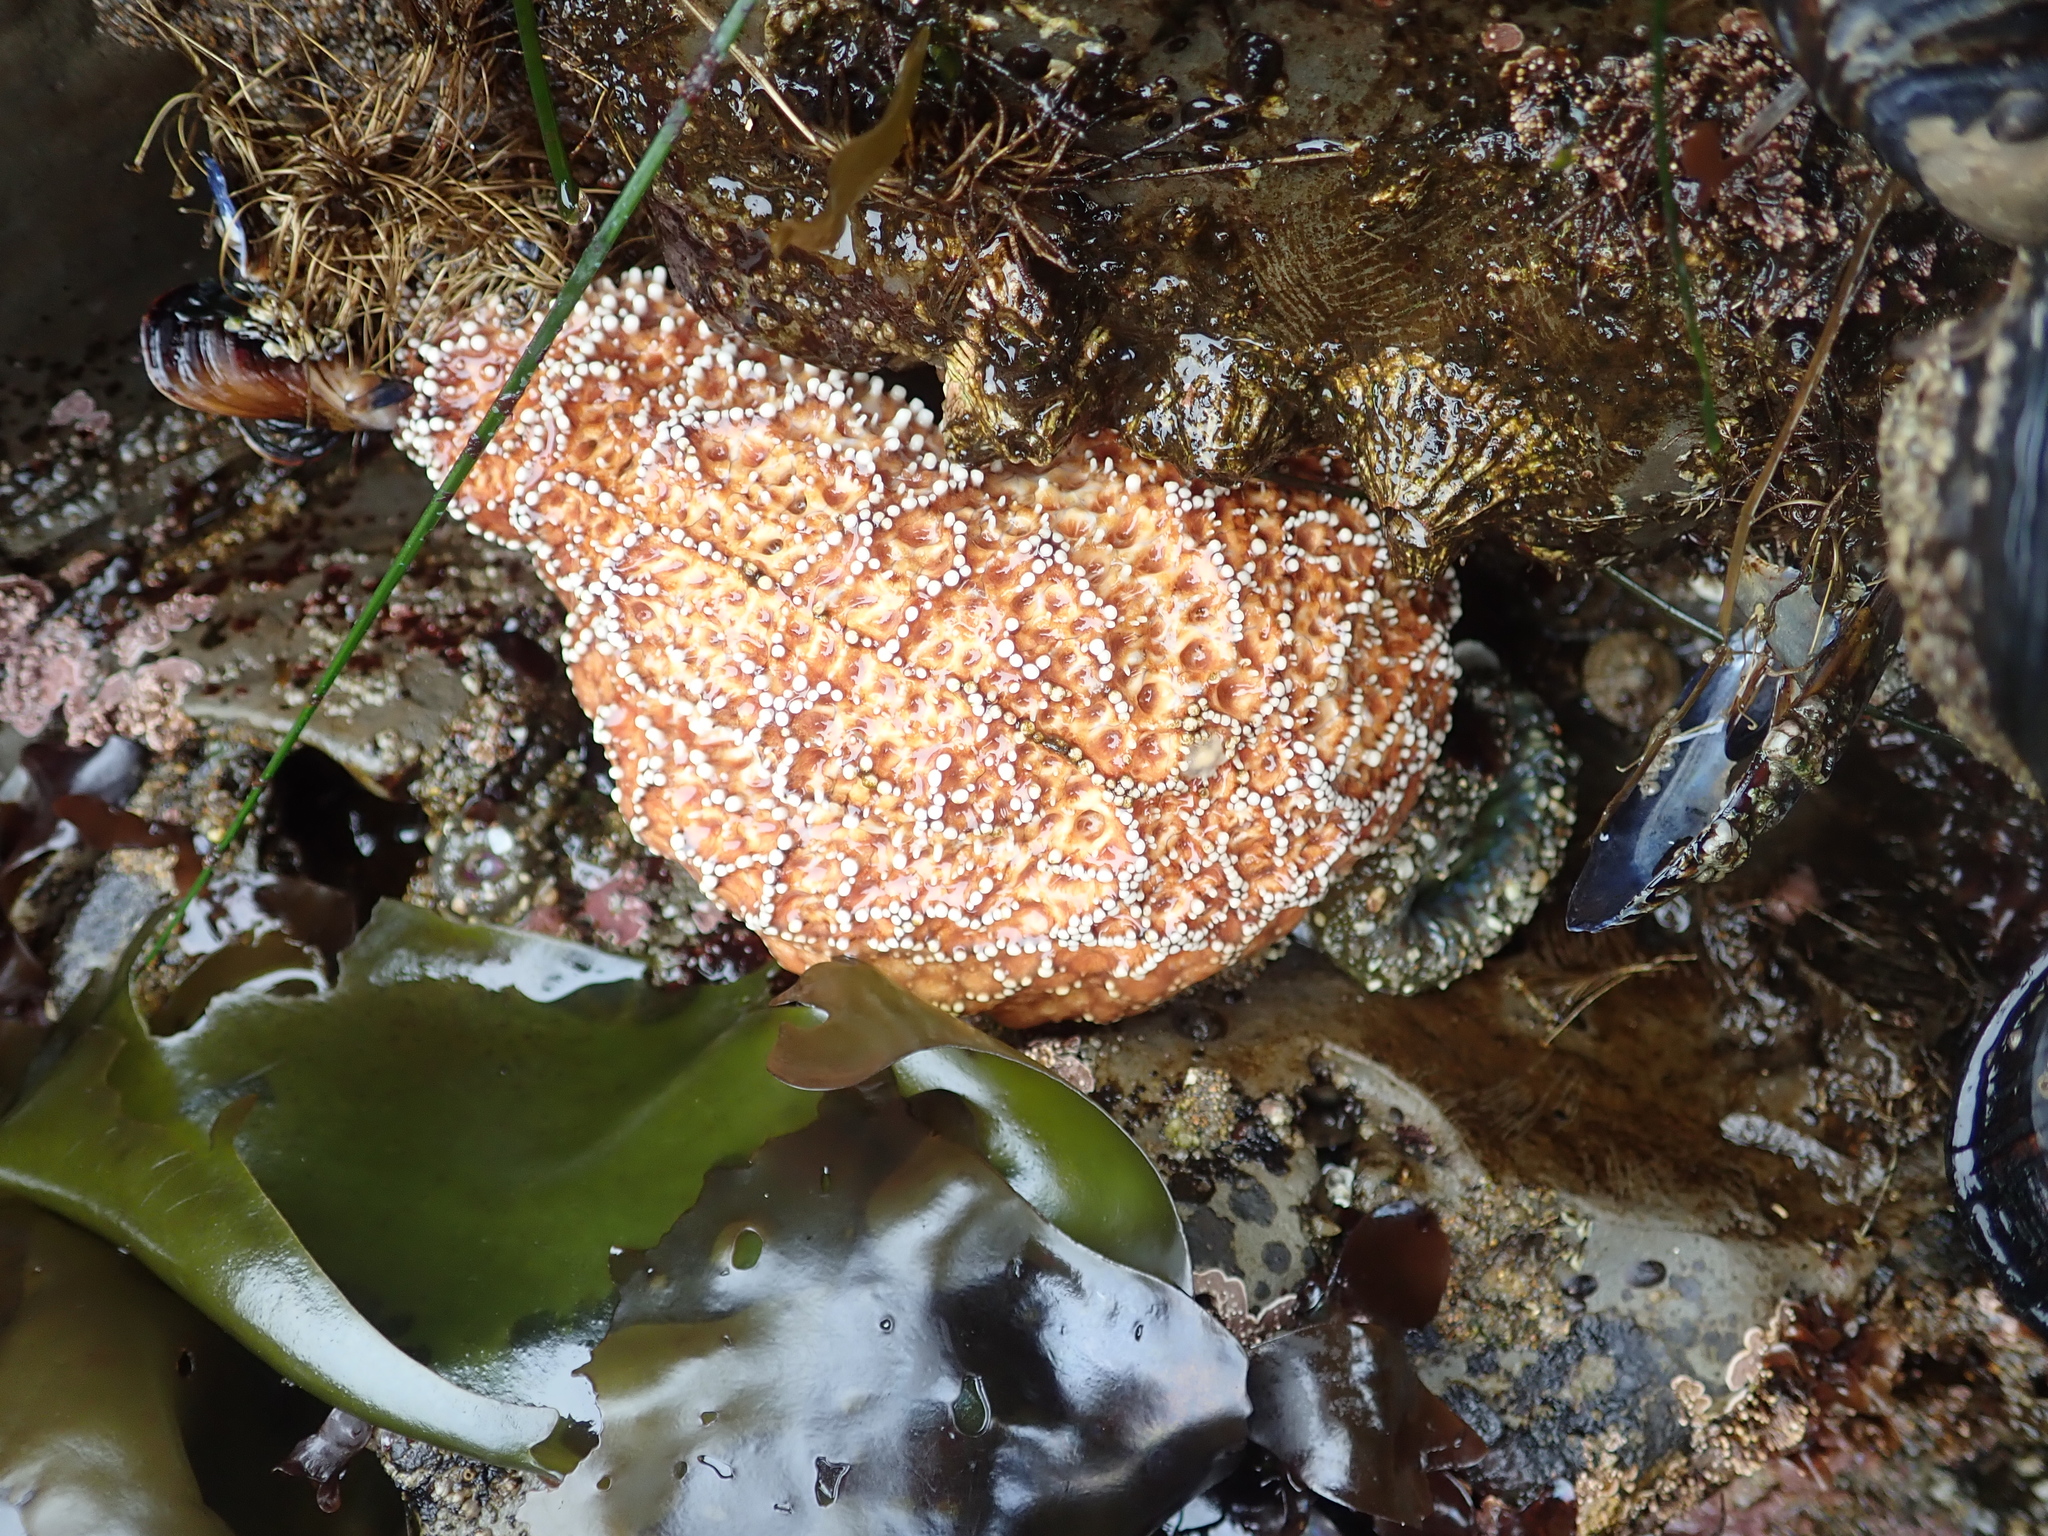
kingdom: Animalia
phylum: Echinodermata
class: Asteroidea
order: Forcipulatida
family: Asteriidae
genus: Pisaster
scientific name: Pisaster ochraceus
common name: Ochre stars
